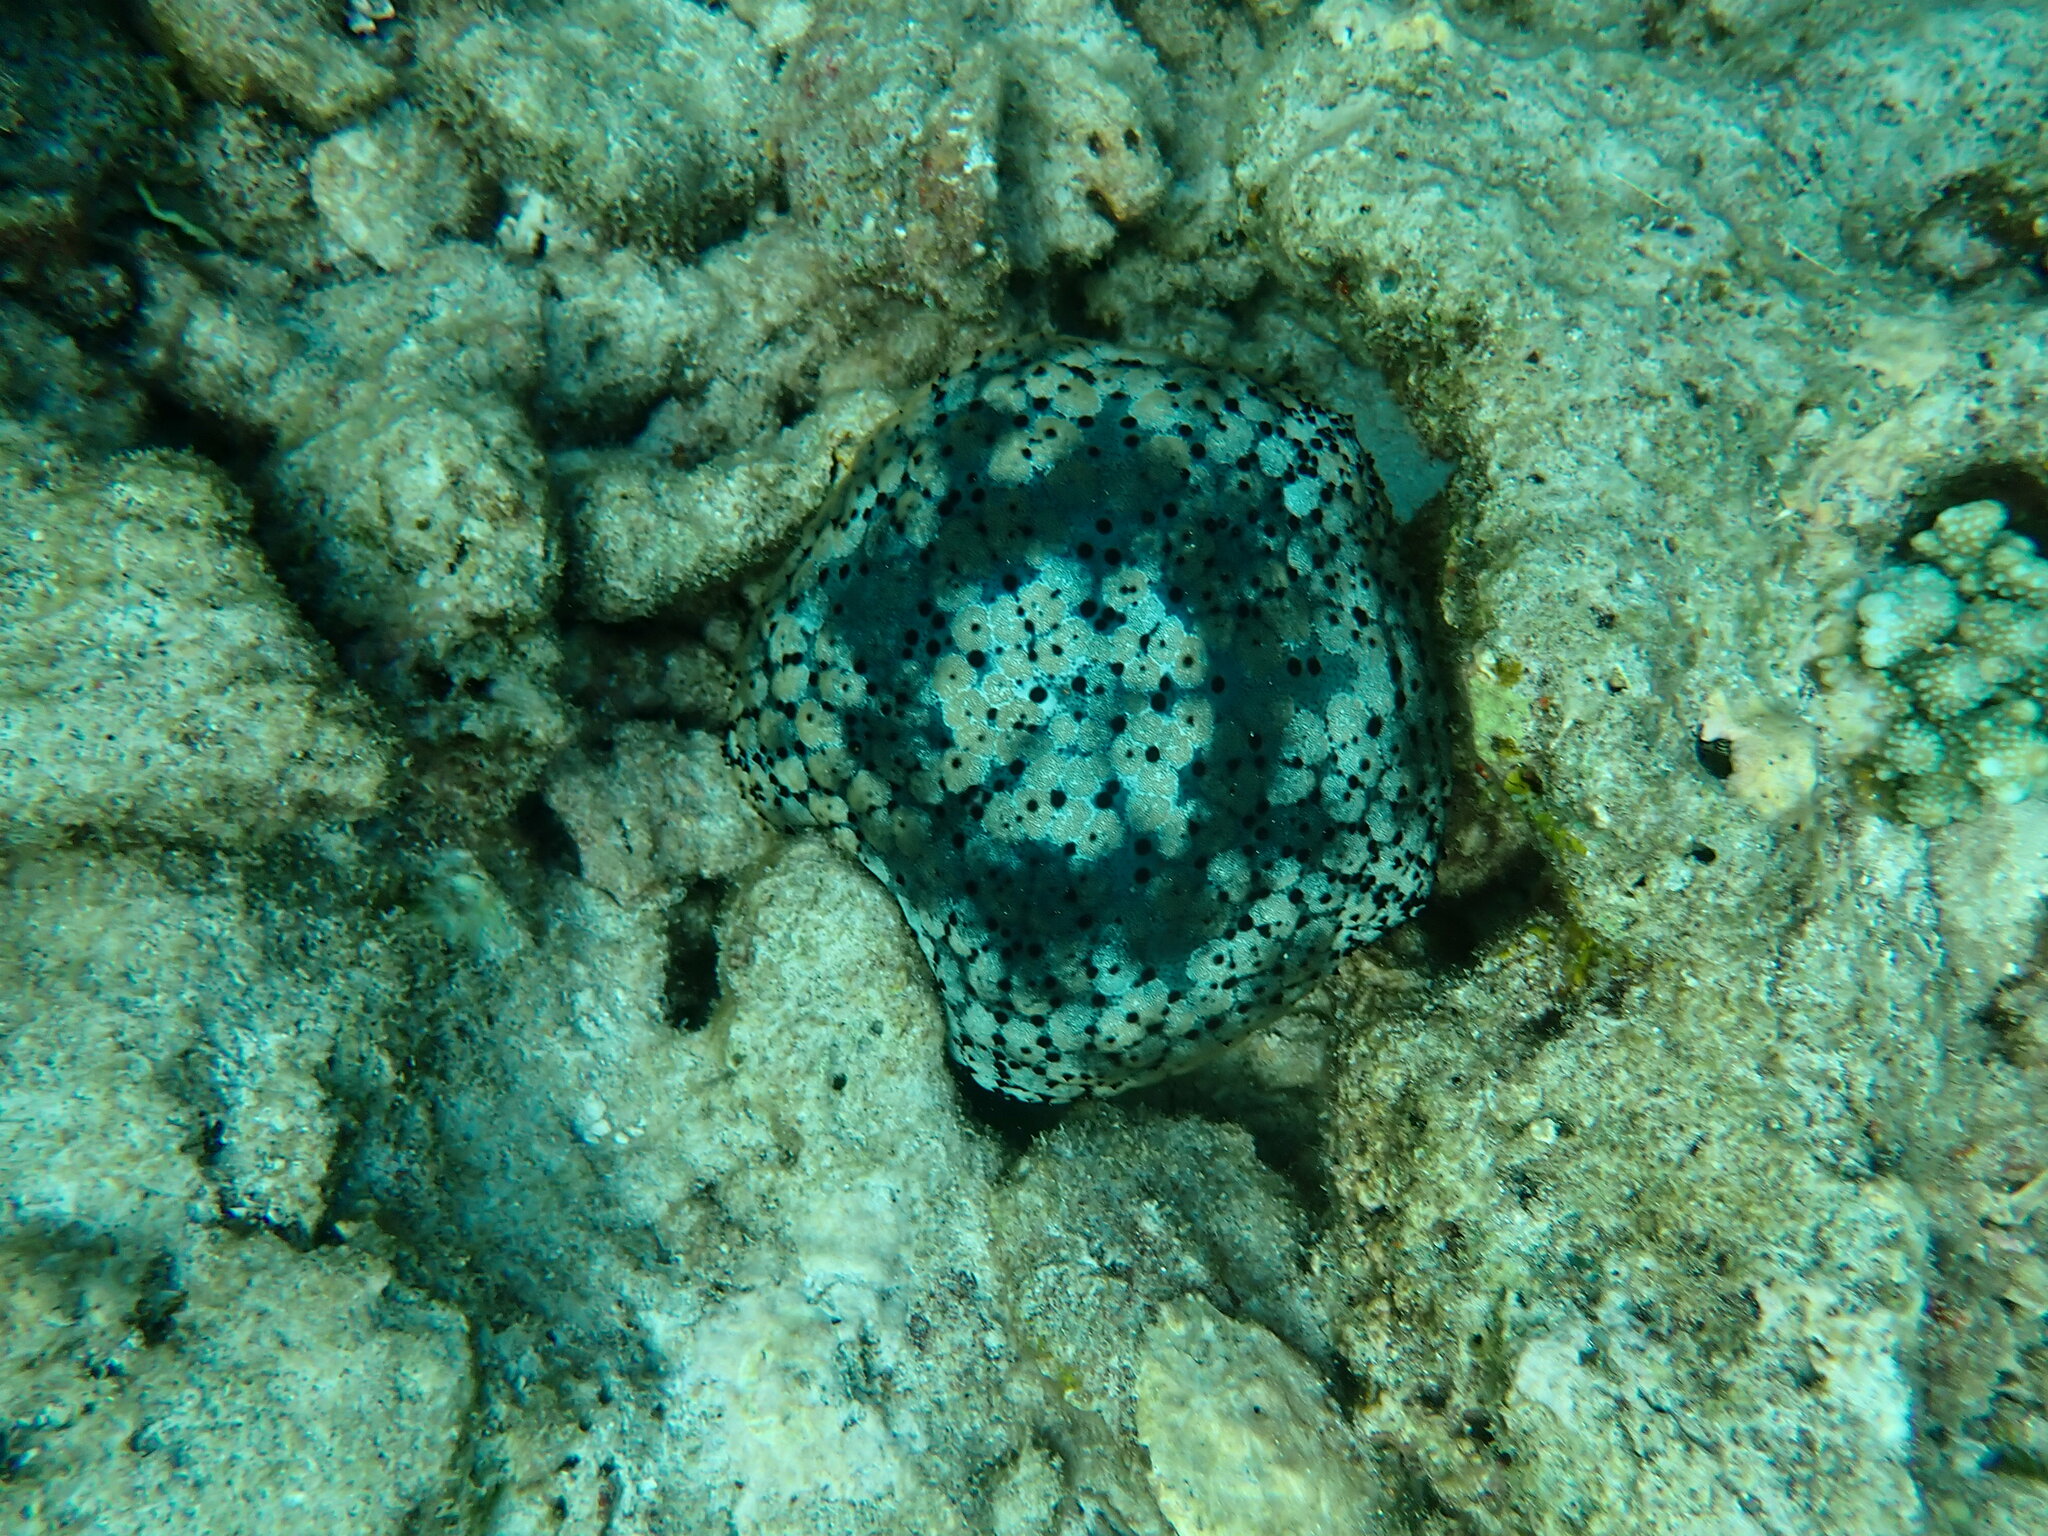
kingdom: Animalia
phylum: Echinodermata
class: Asteroidea
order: Valvatida
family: Oreasteridae
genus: Culcita
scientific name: Culcita schmideliana
